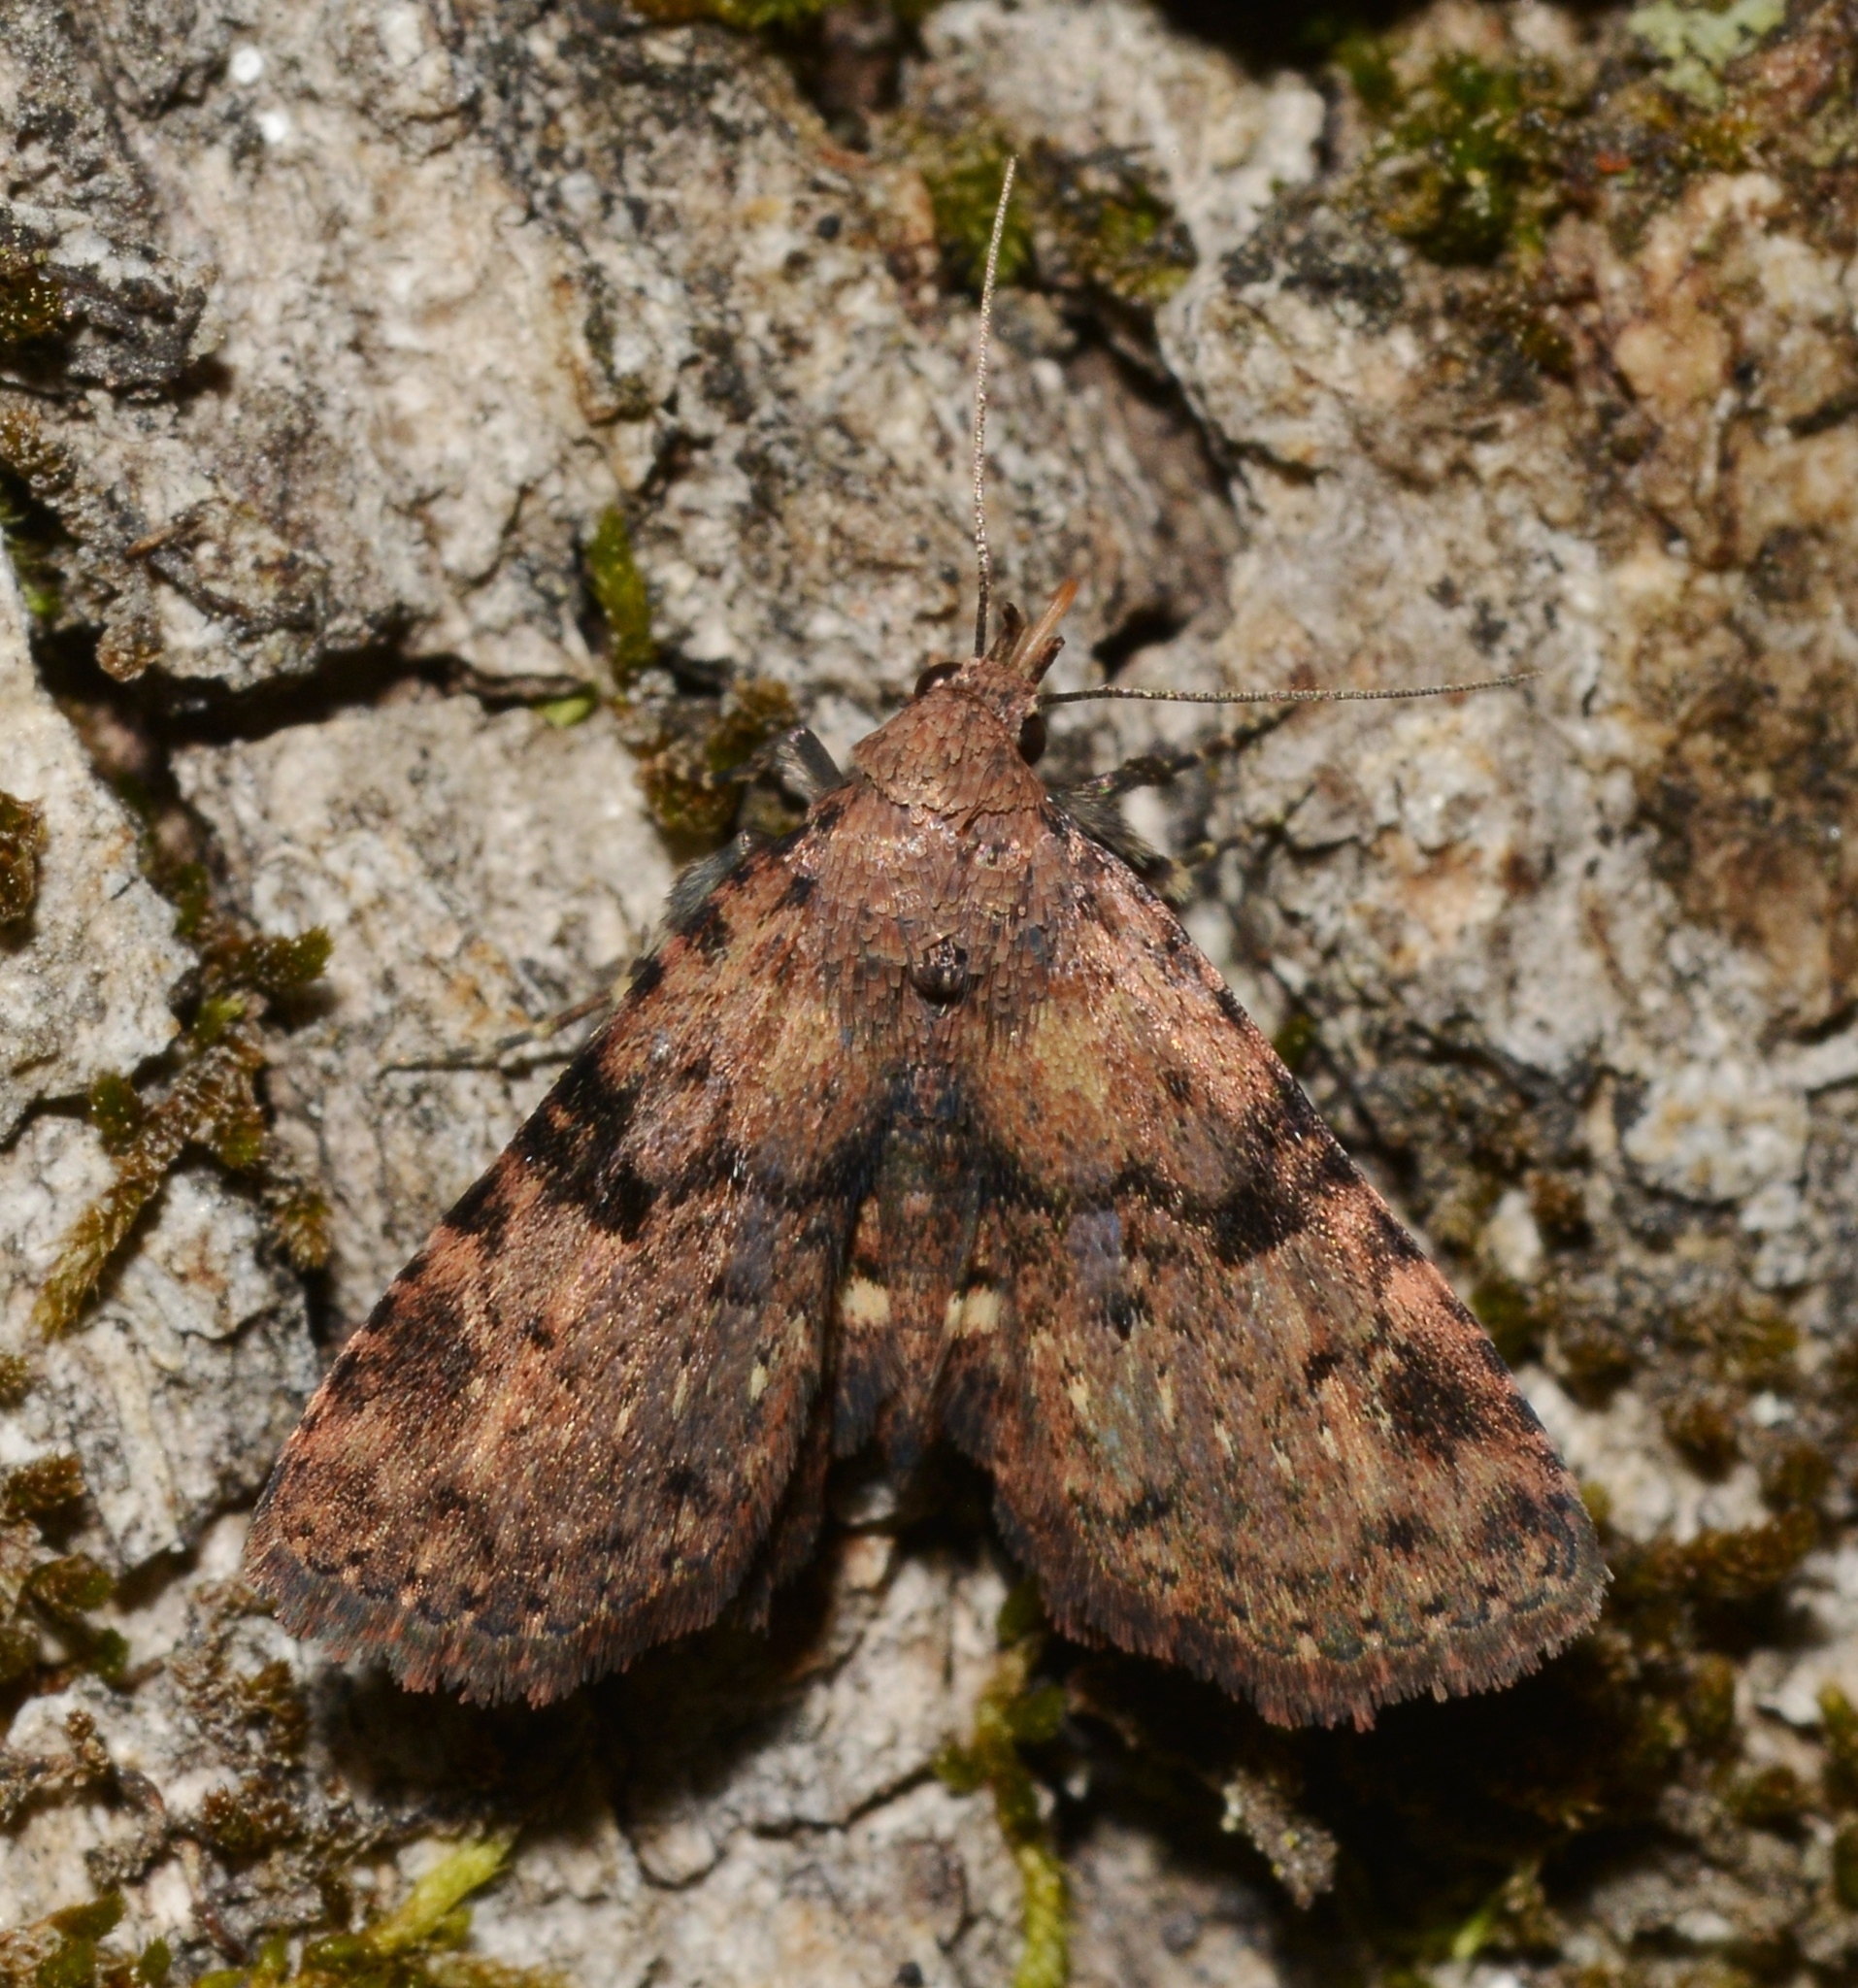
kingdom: Animalia
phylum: Arthropoda
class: Insecta
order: Lepidoptera
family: Erebidae
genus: Metalectra
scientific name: Metalectra quadrisignata
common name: Four-spotted fungus moth
